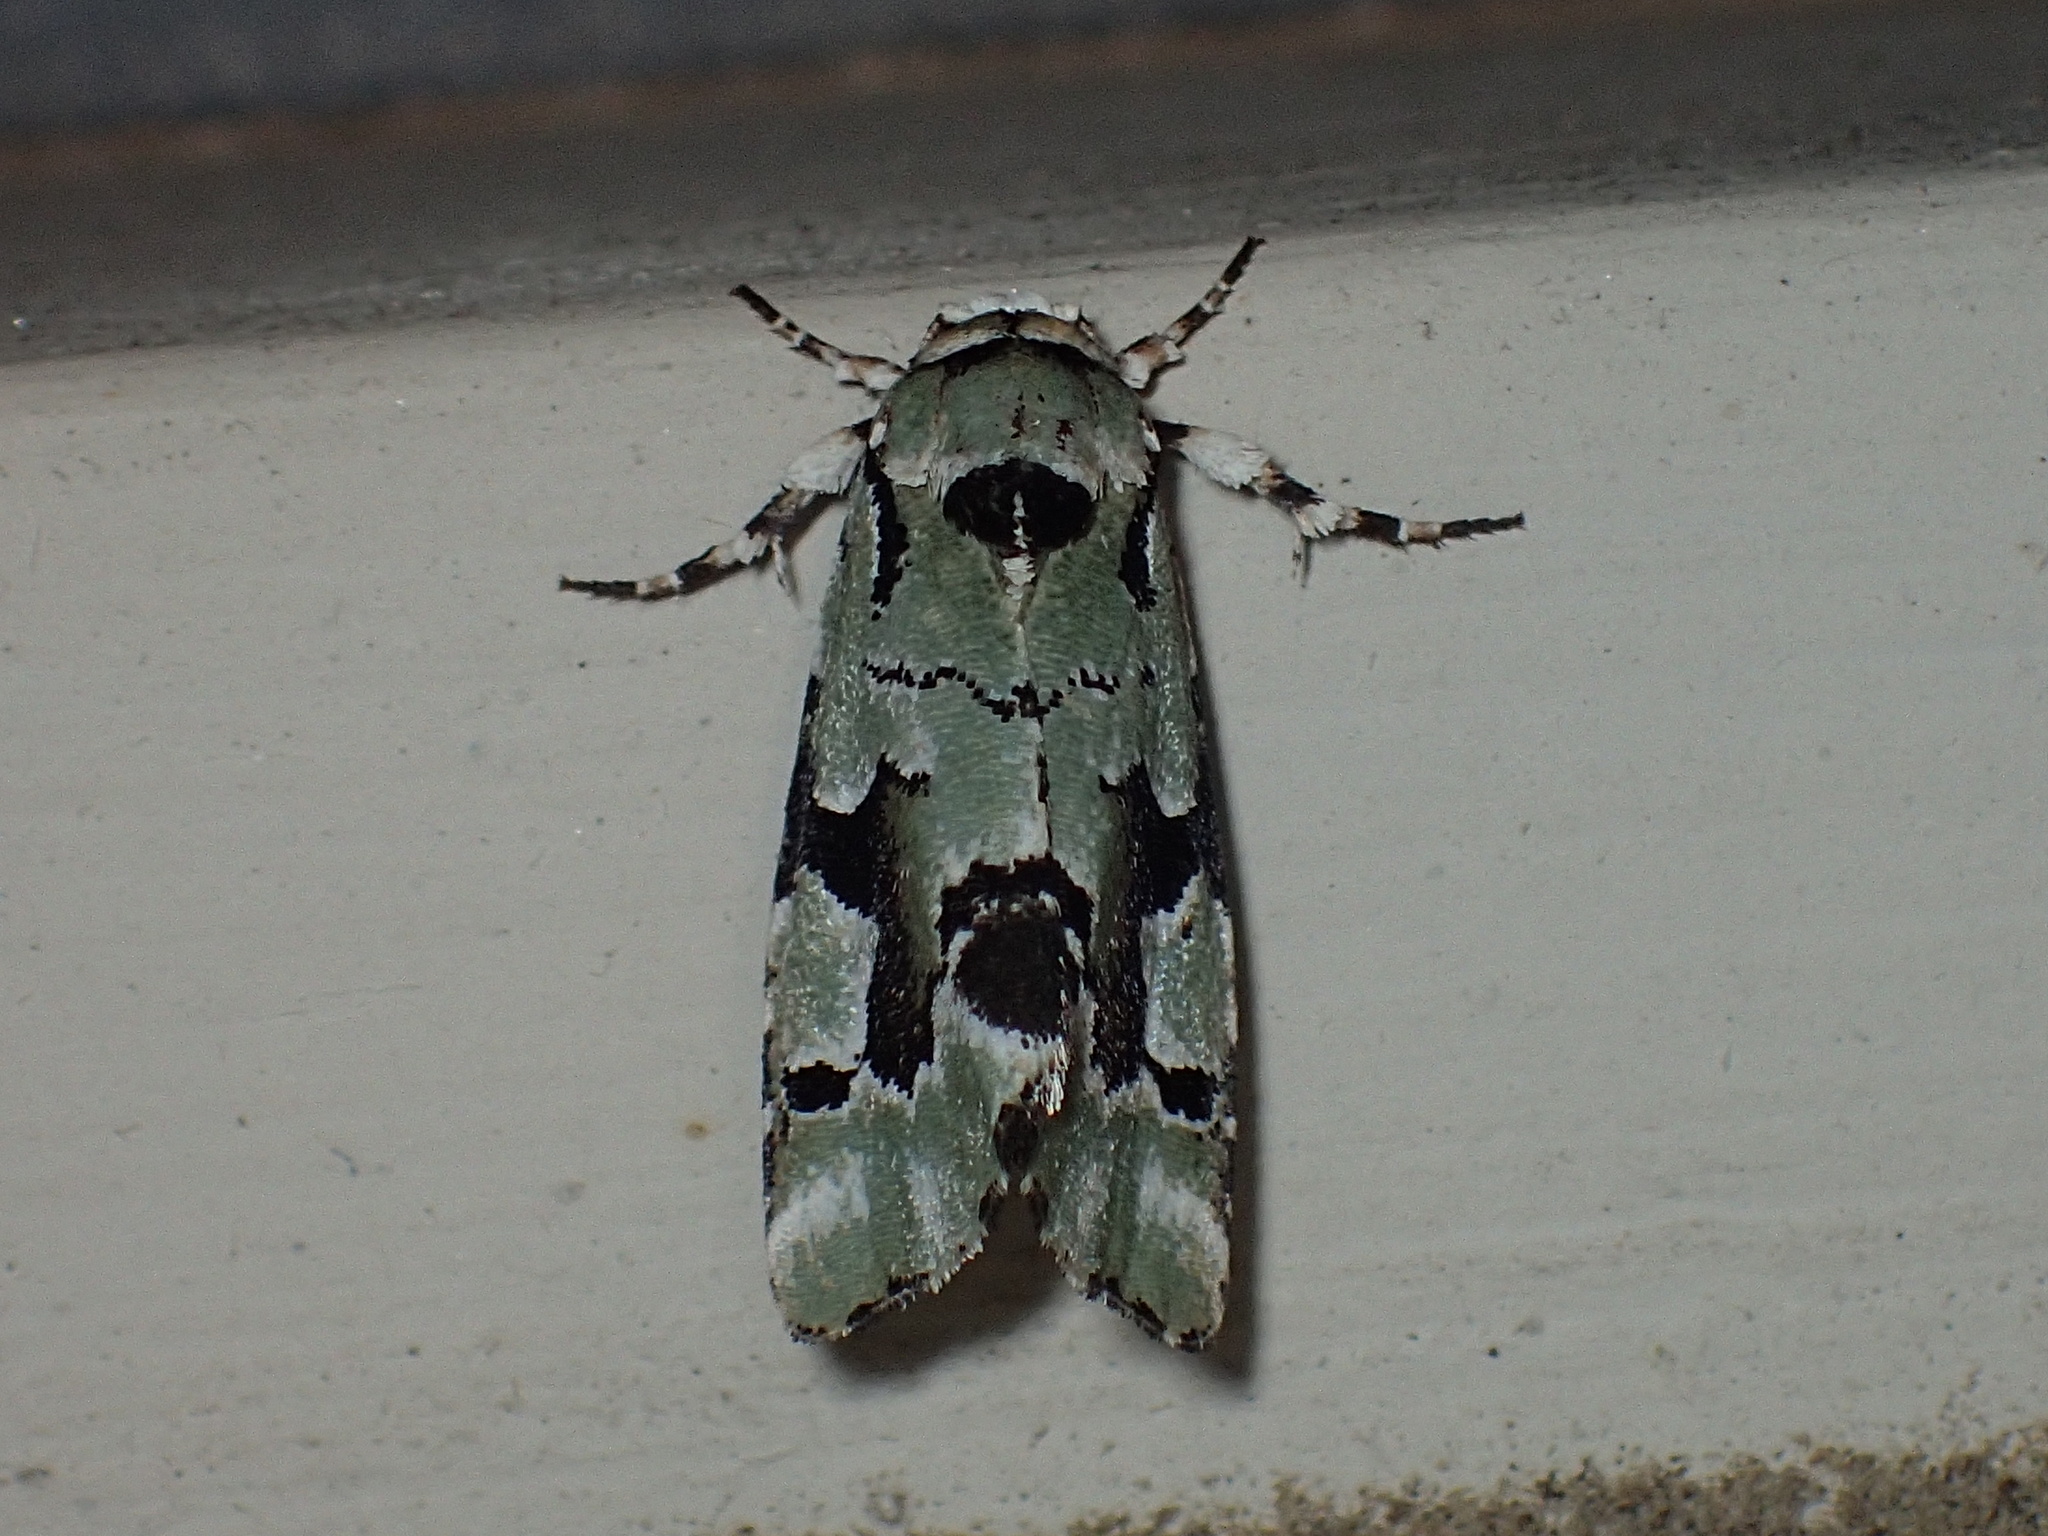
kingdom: Animalia
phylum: Arthropoda
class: Insecta
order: Lepidoptera
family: Noctuidae
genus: Emarginea
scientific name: Emarginea percara
